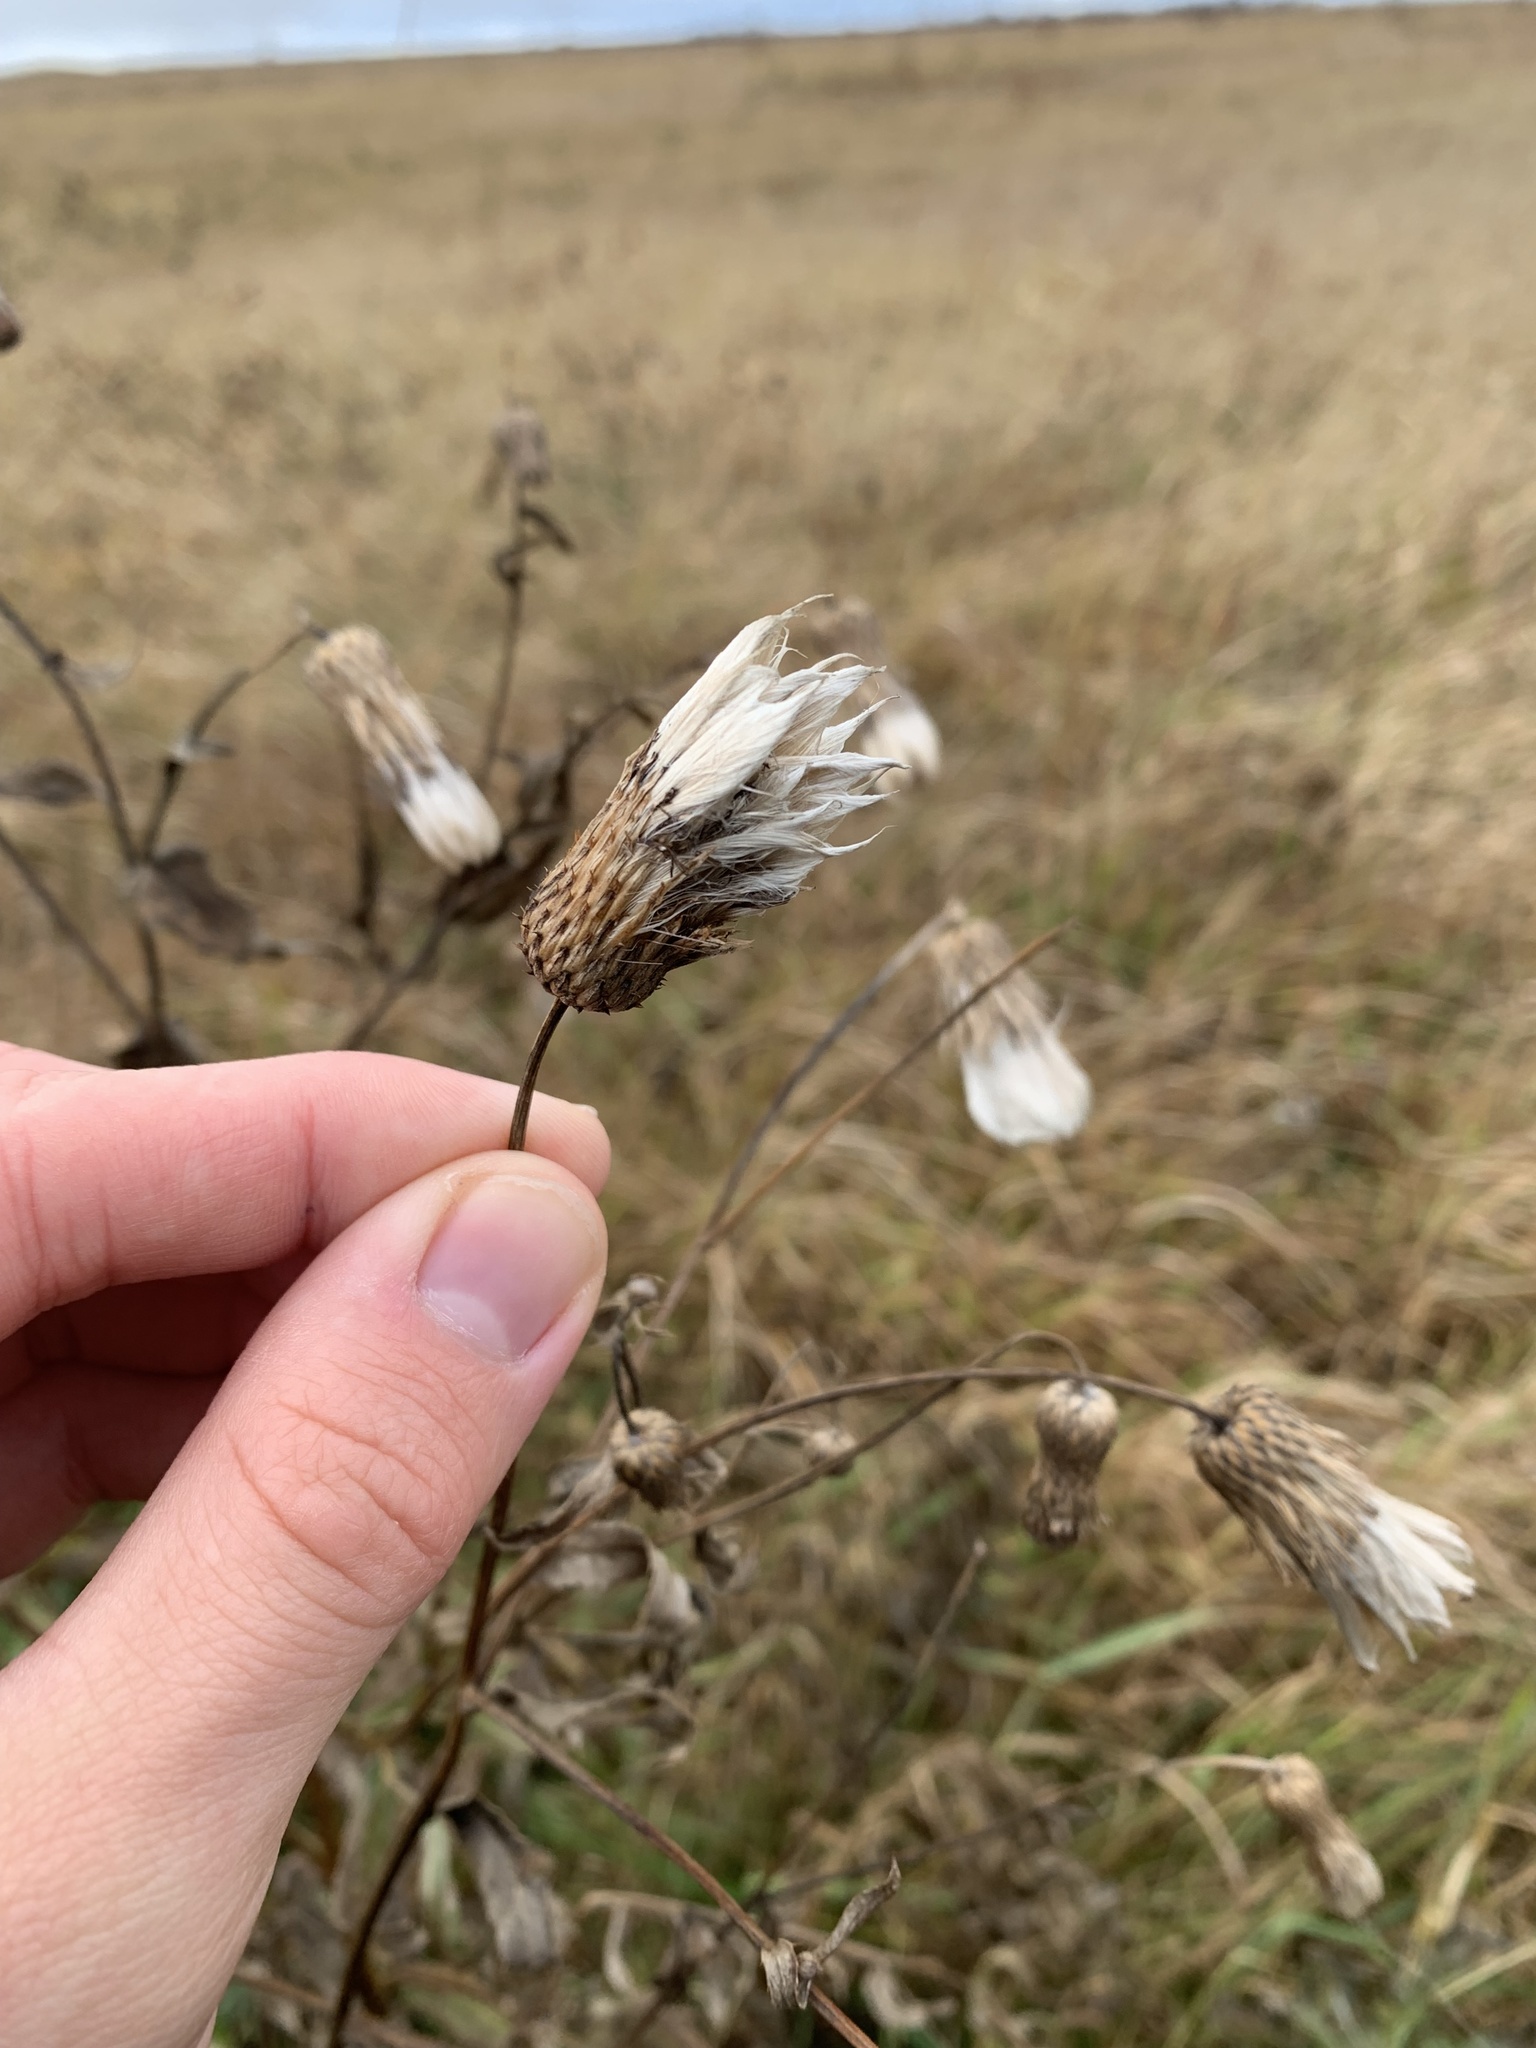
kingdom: Plantae
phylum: Tracheophyta
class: Magnoliopsida
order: Asterales
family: Asteraceae
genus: Cirsium
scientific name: Cirsium arvense
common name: Creeping thistle
